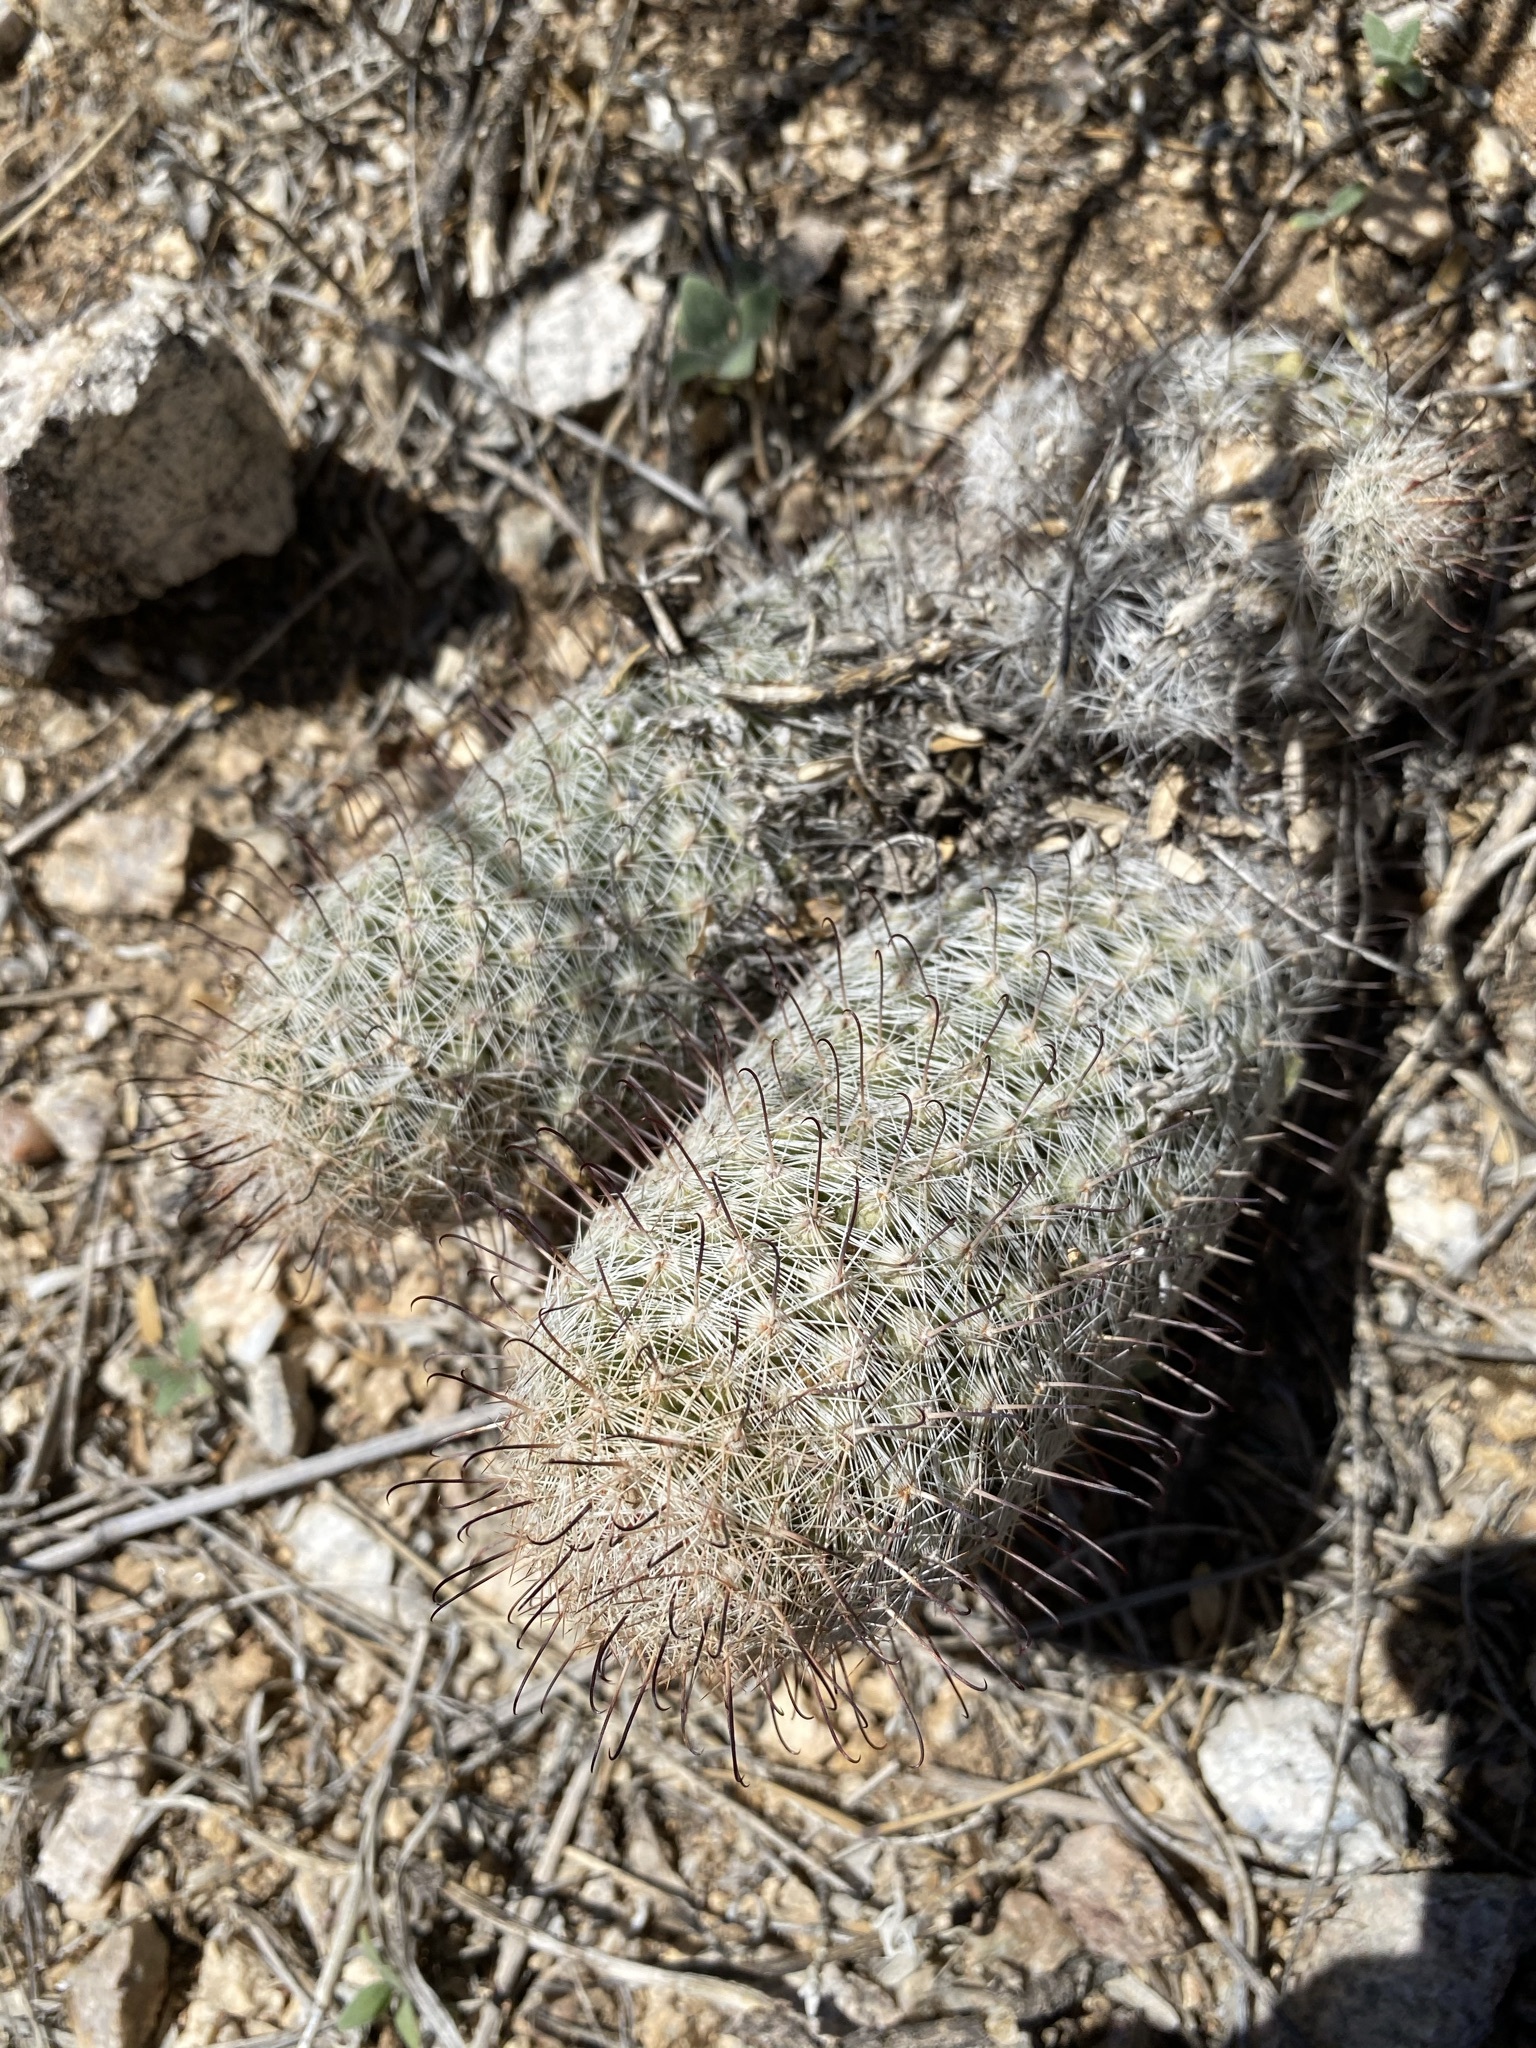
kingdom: Plantae
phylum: Tracheophyta
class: Magnoliopsida
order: Caryophyllales
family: Cactaceae
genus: Cochemiea
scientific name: Cochemiea grahamii
